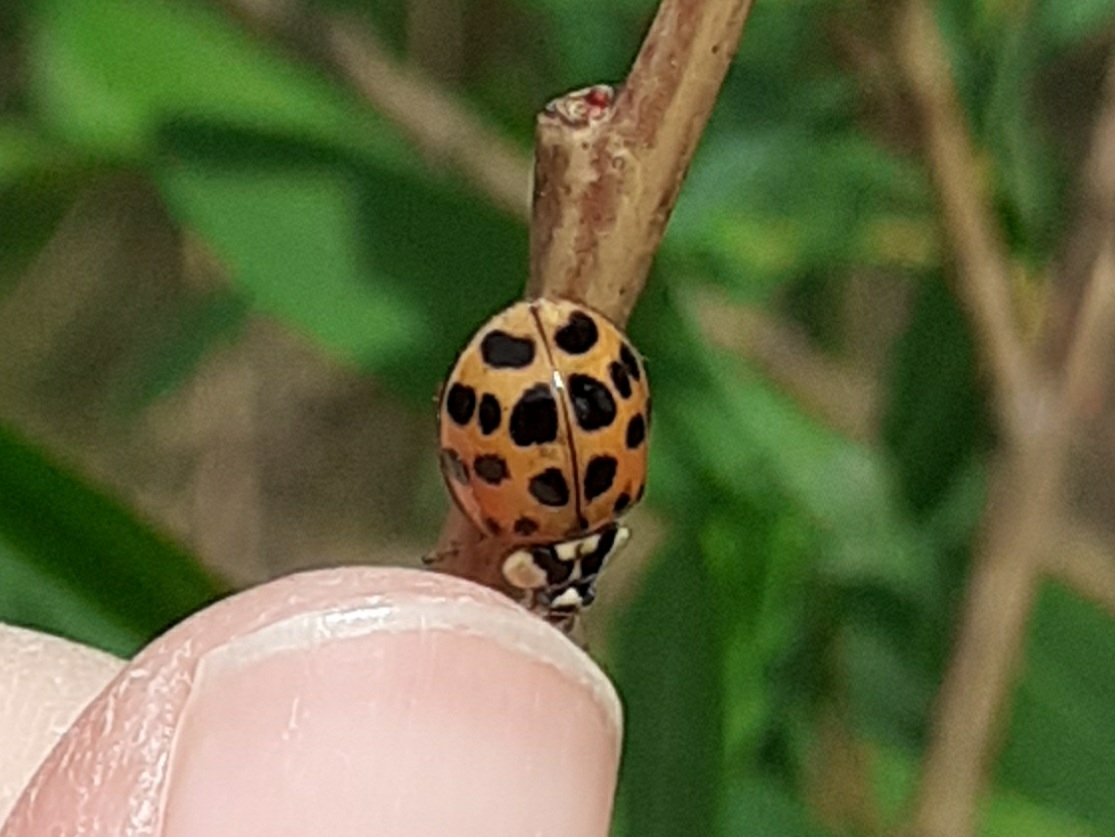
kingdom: Animalia
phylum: Arthropoda
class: Insecta
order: Coleoptera
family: Coccinellidae
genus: Harmonia
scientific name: Harmonia axyridis
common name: Harlequin ladybird
